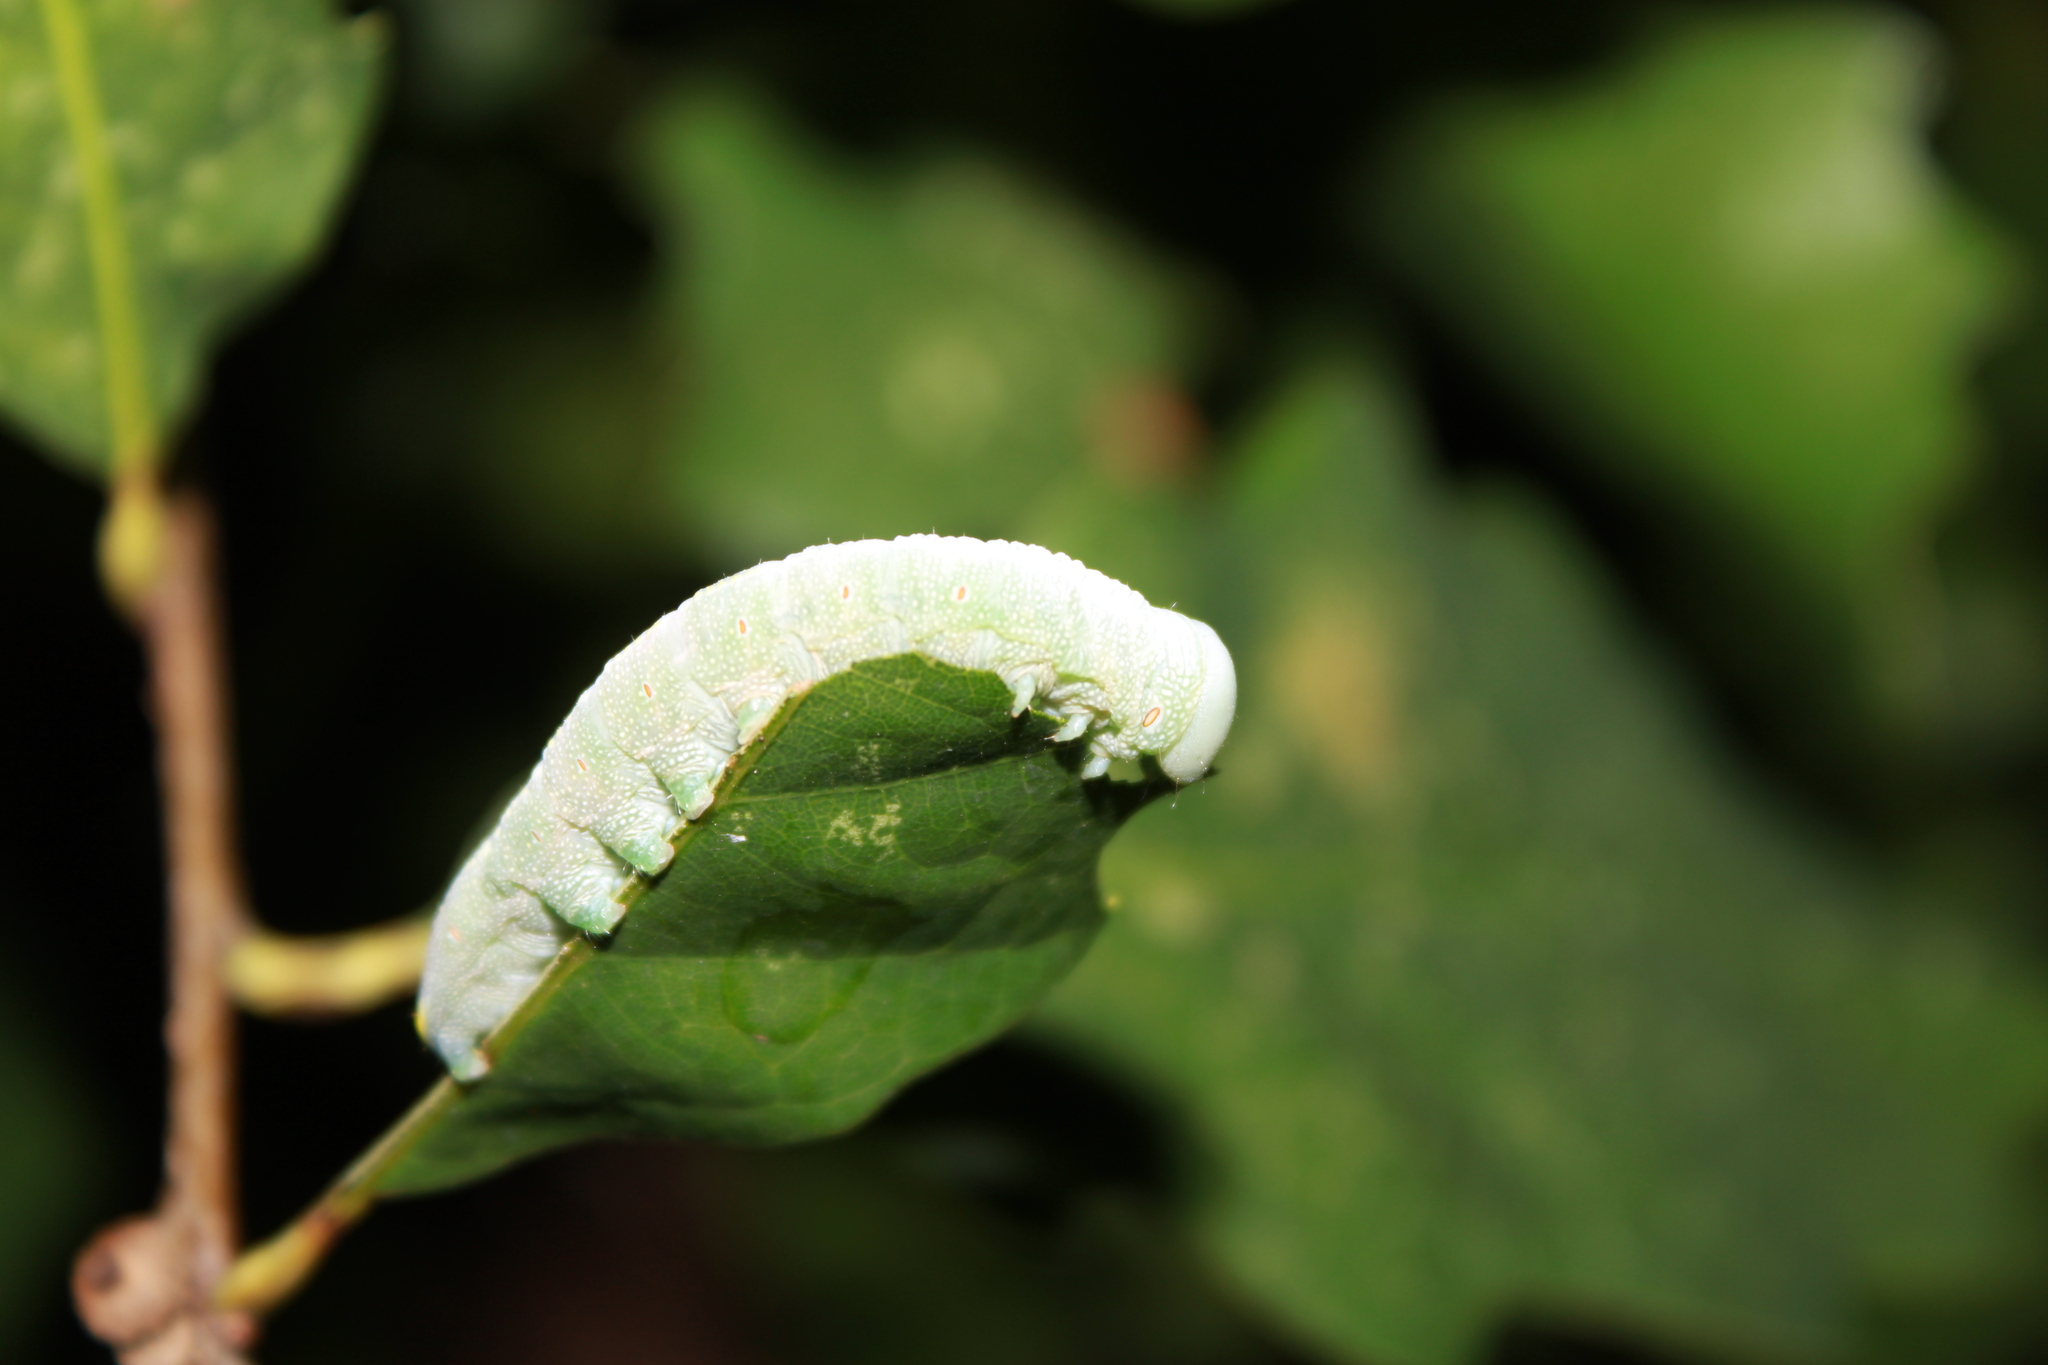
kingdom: Animalia
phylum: Arthropoda
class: Insecta
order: Lepidoptera
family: Notodontidae
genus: Nadata
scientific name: Nadata gibbosa
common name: White-dotted prominent
